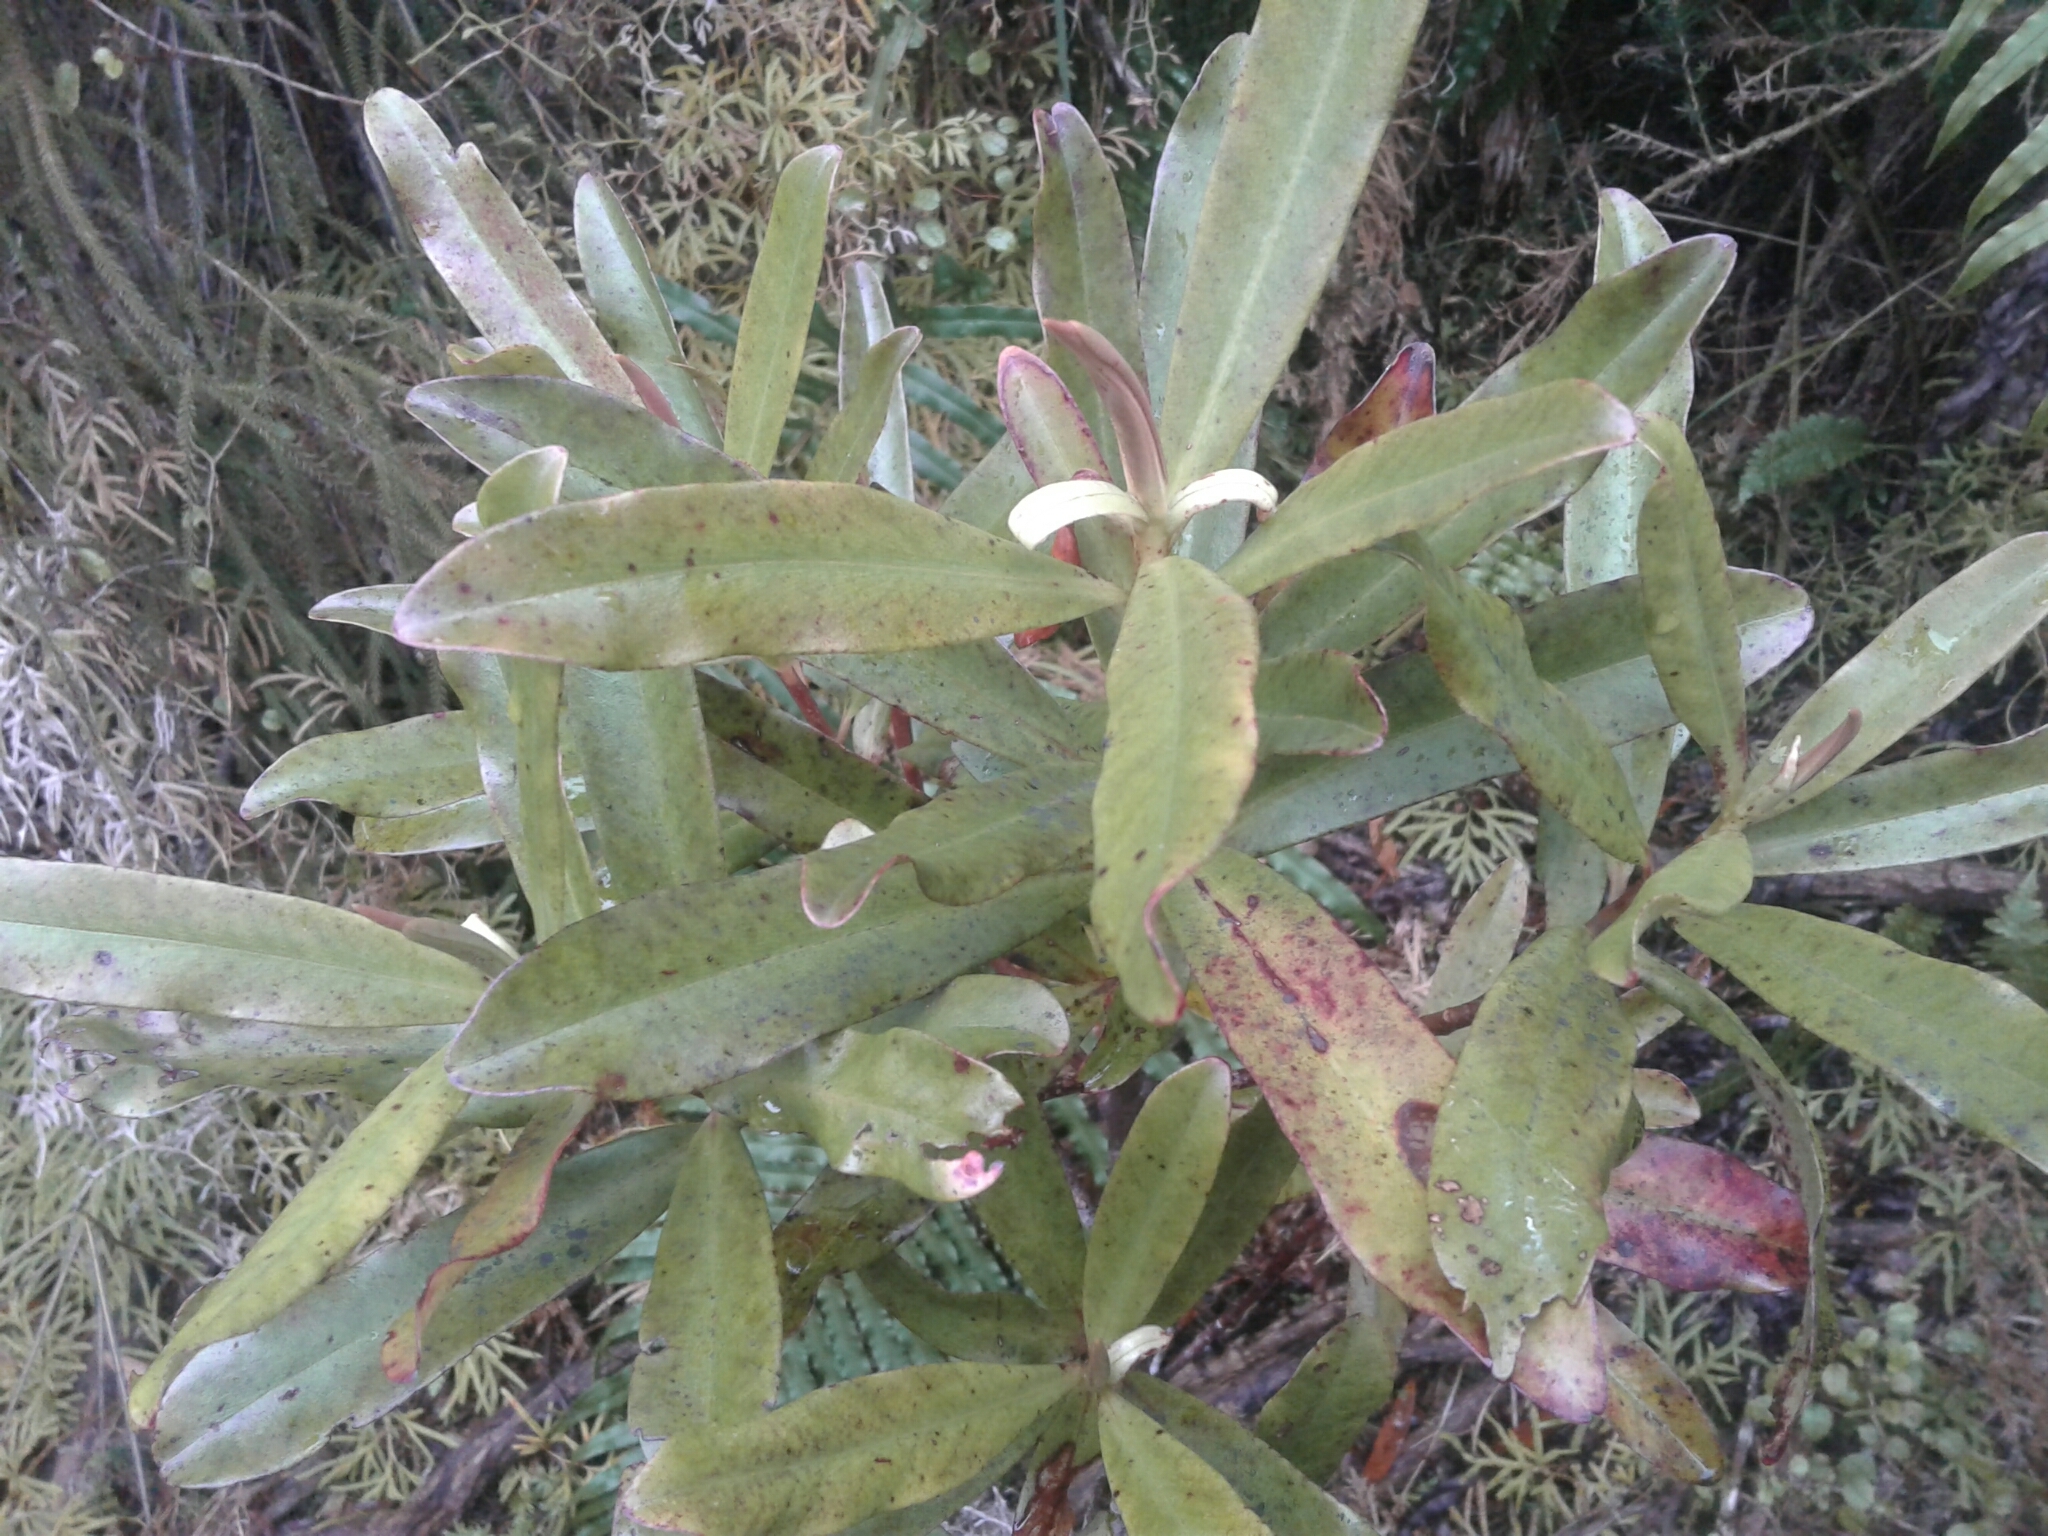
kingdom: Plantae
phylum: Tracheophyta
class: Magnoliopsida
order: Ericales
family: Primulaceae
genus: Myrsine
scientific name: Myrsine salicina
